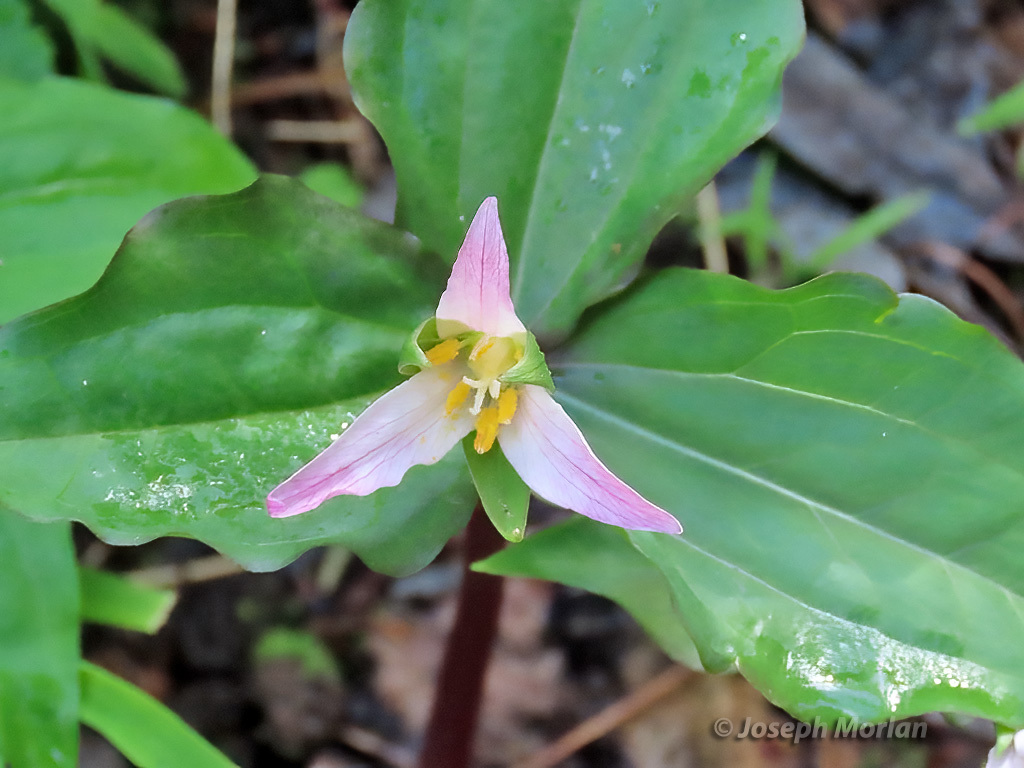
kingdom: Plantae
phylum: Tracheophyta
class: Liliopsida
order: Liliales
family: Melanthiaceae
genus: Trillium
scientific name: Trillium ovatum
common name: Pacific trillium
